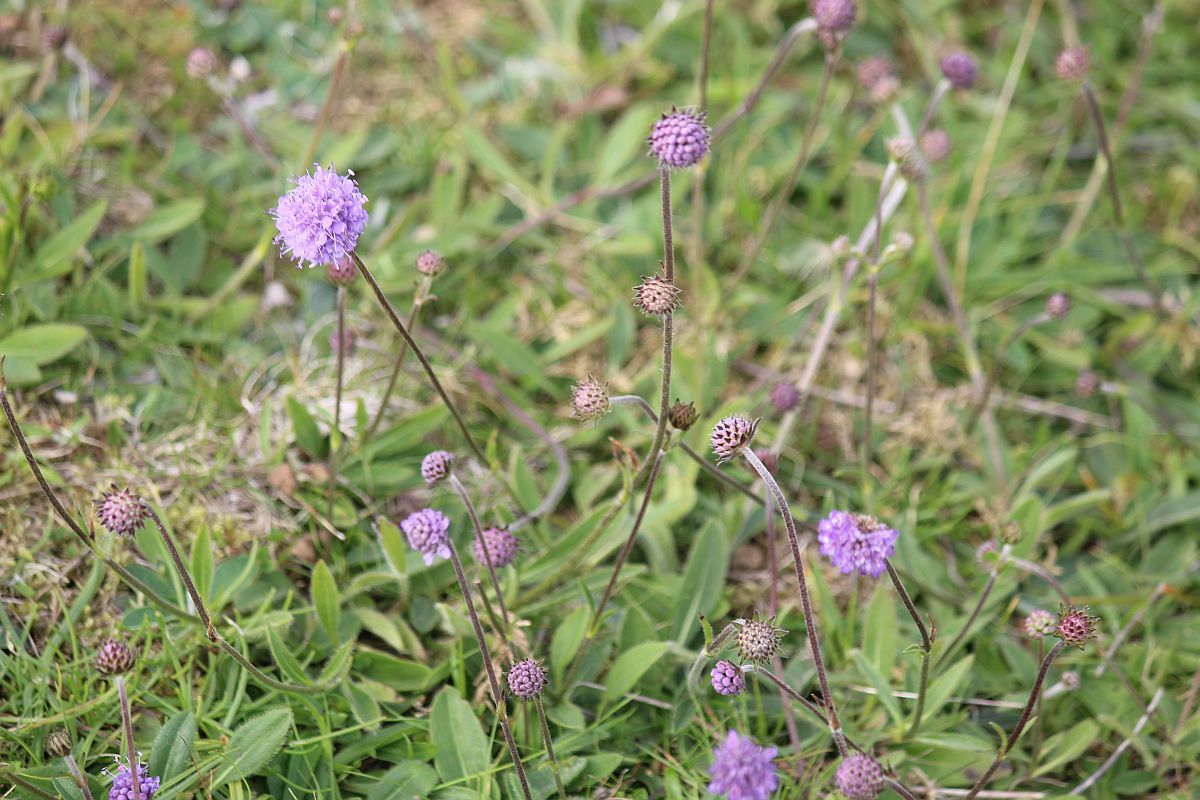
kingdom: Plantae
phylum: Tracheophyta
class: Magnoliopsida
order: Dipsacales
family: Caprifoliaceae
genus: Succisa
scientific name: Succisa pratensis
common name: Devil's-bit
